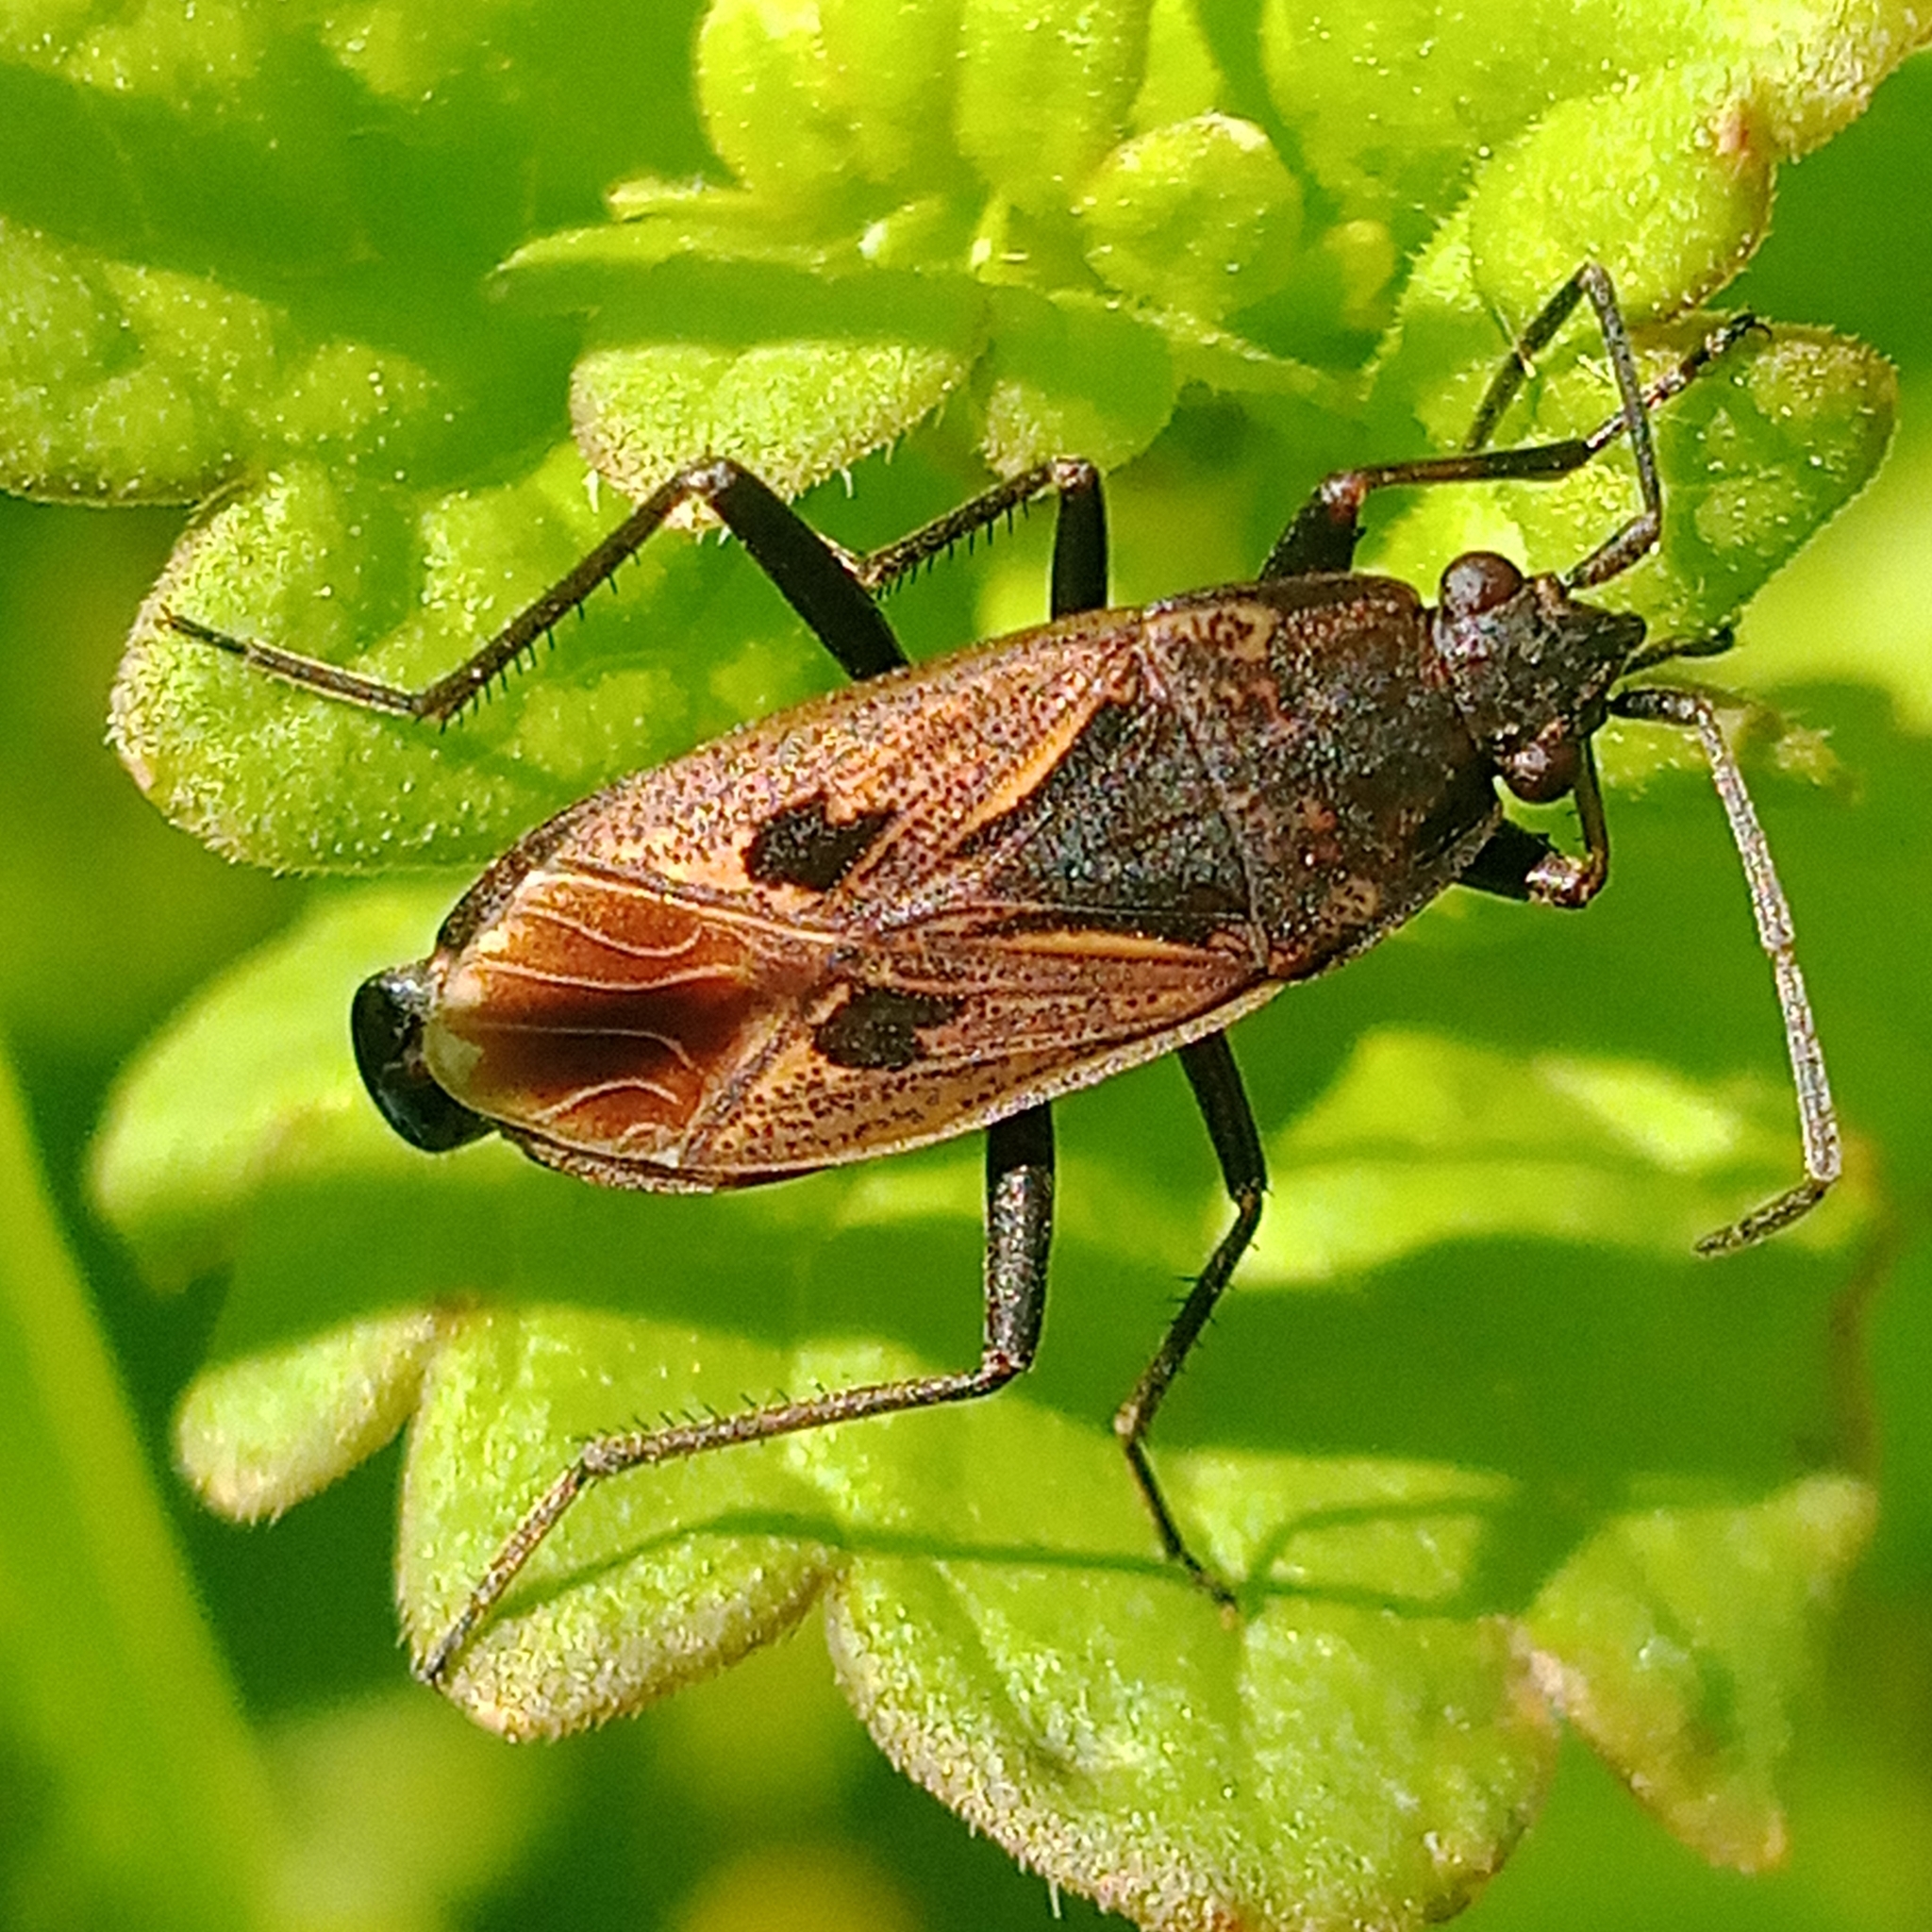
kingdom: Animalia
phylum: Arthropoda
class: Insecta
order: Hemiptera
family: Rhyparochromidae
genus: Rhyparochromus
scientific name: Rhyparochromus pini
